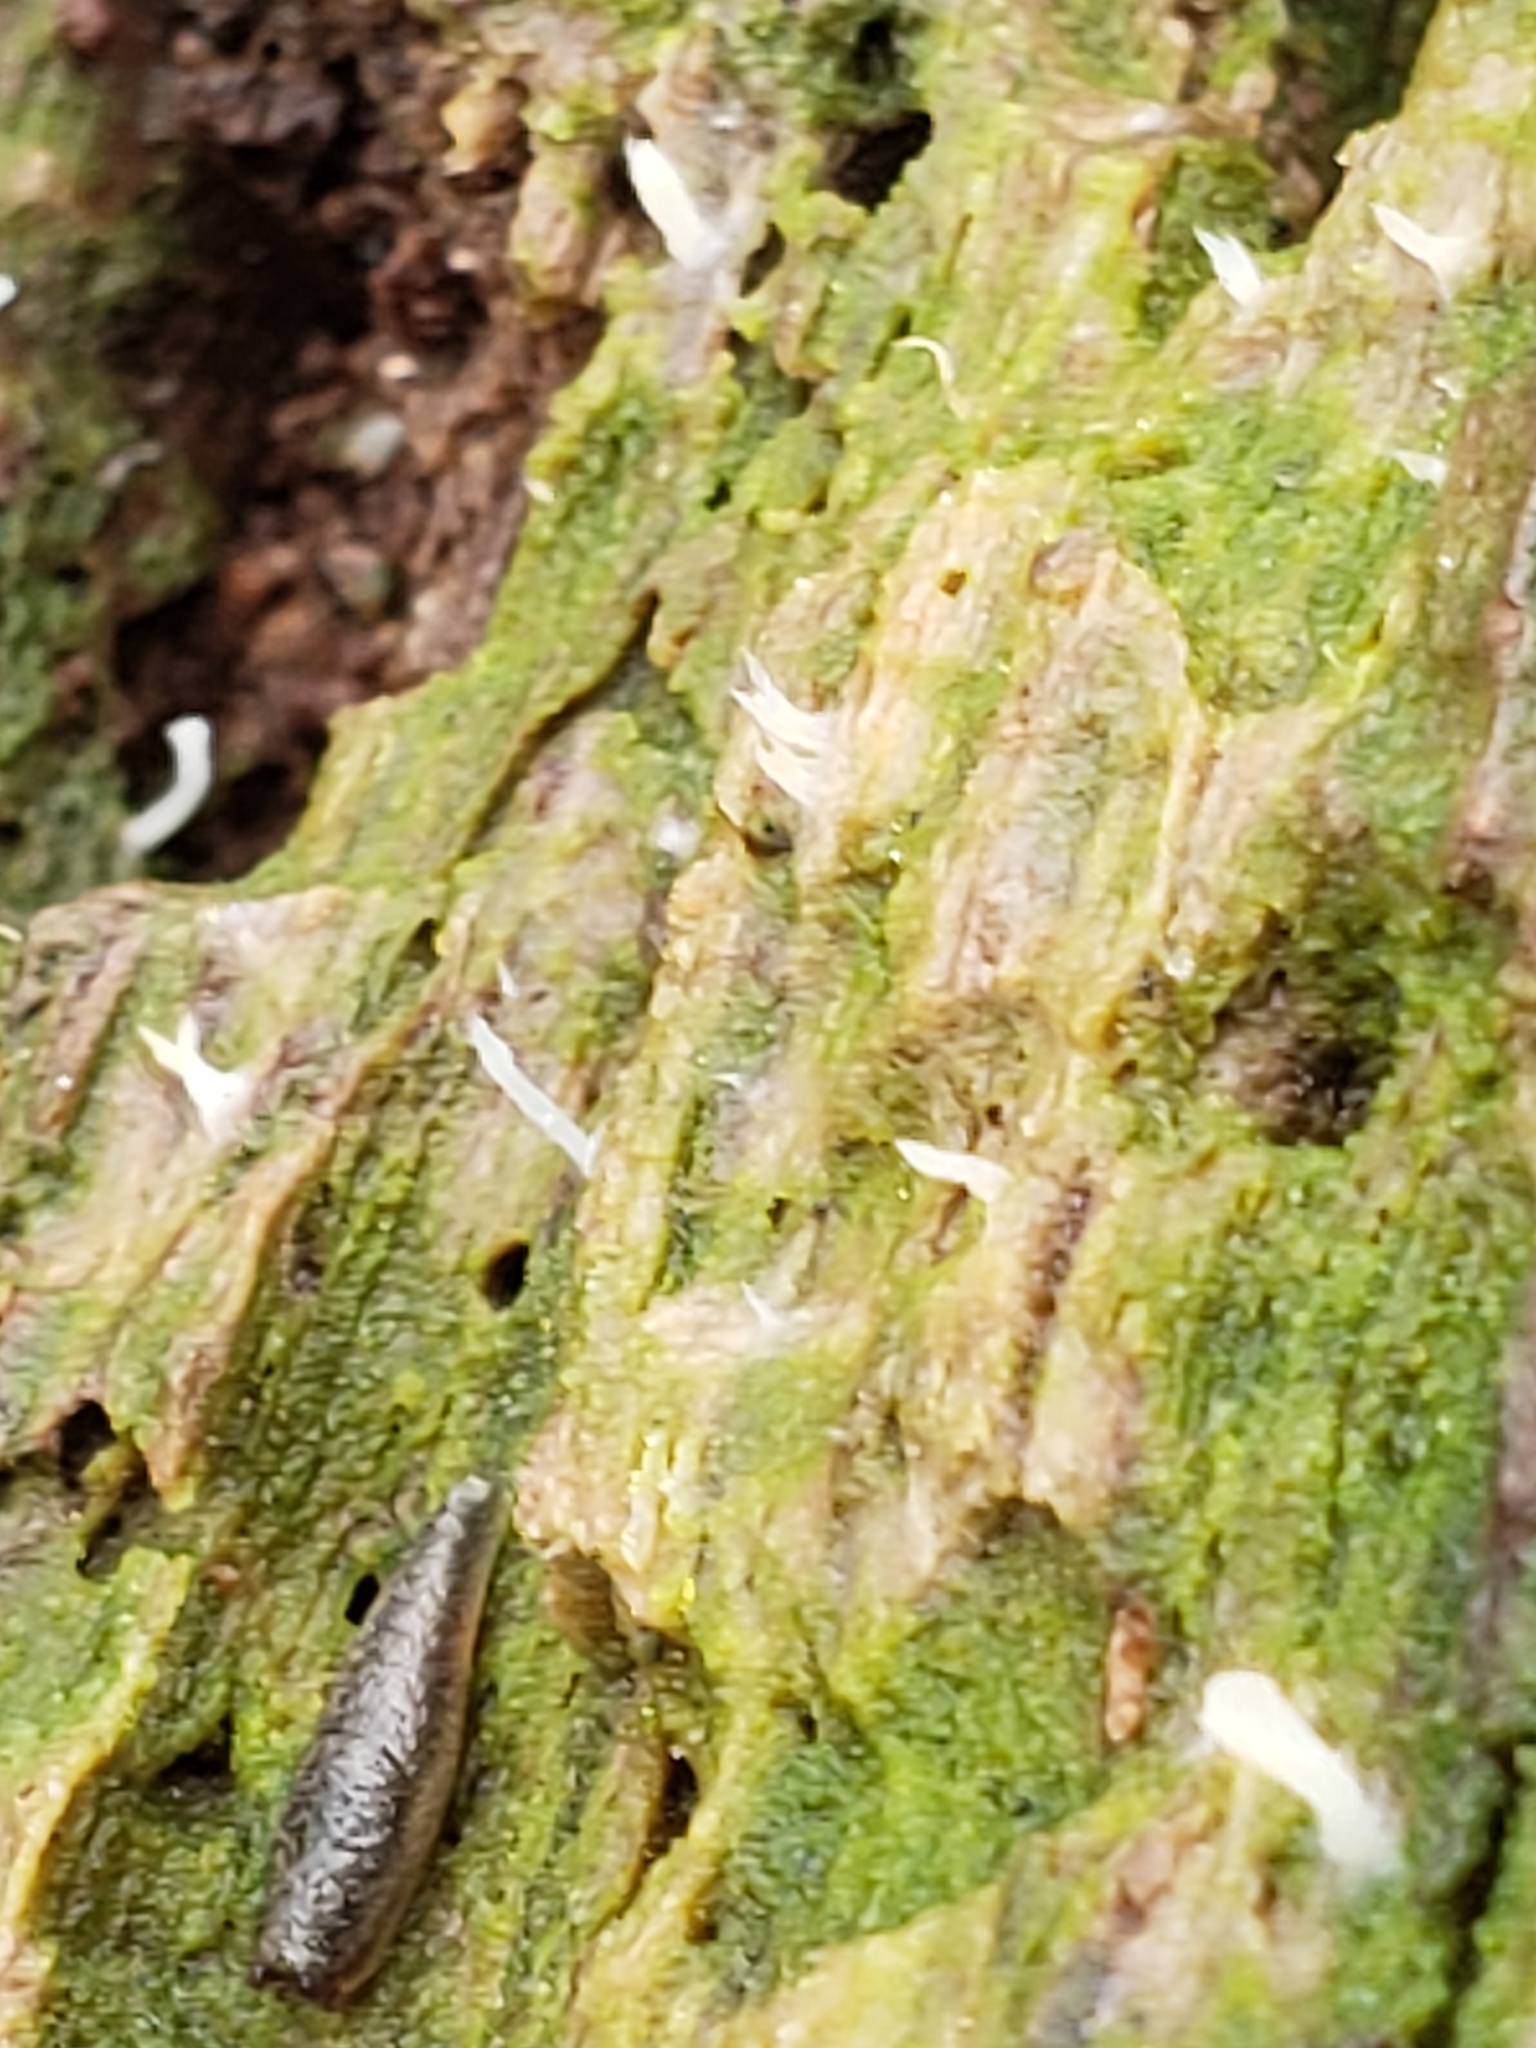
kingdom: Fungi
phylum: Basidiomycota
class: Agaricomycetes
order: Cantharellales
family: Hydnaceae
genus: Multiclavula
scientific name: Multiclavula mucida
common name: White green-algae coral
